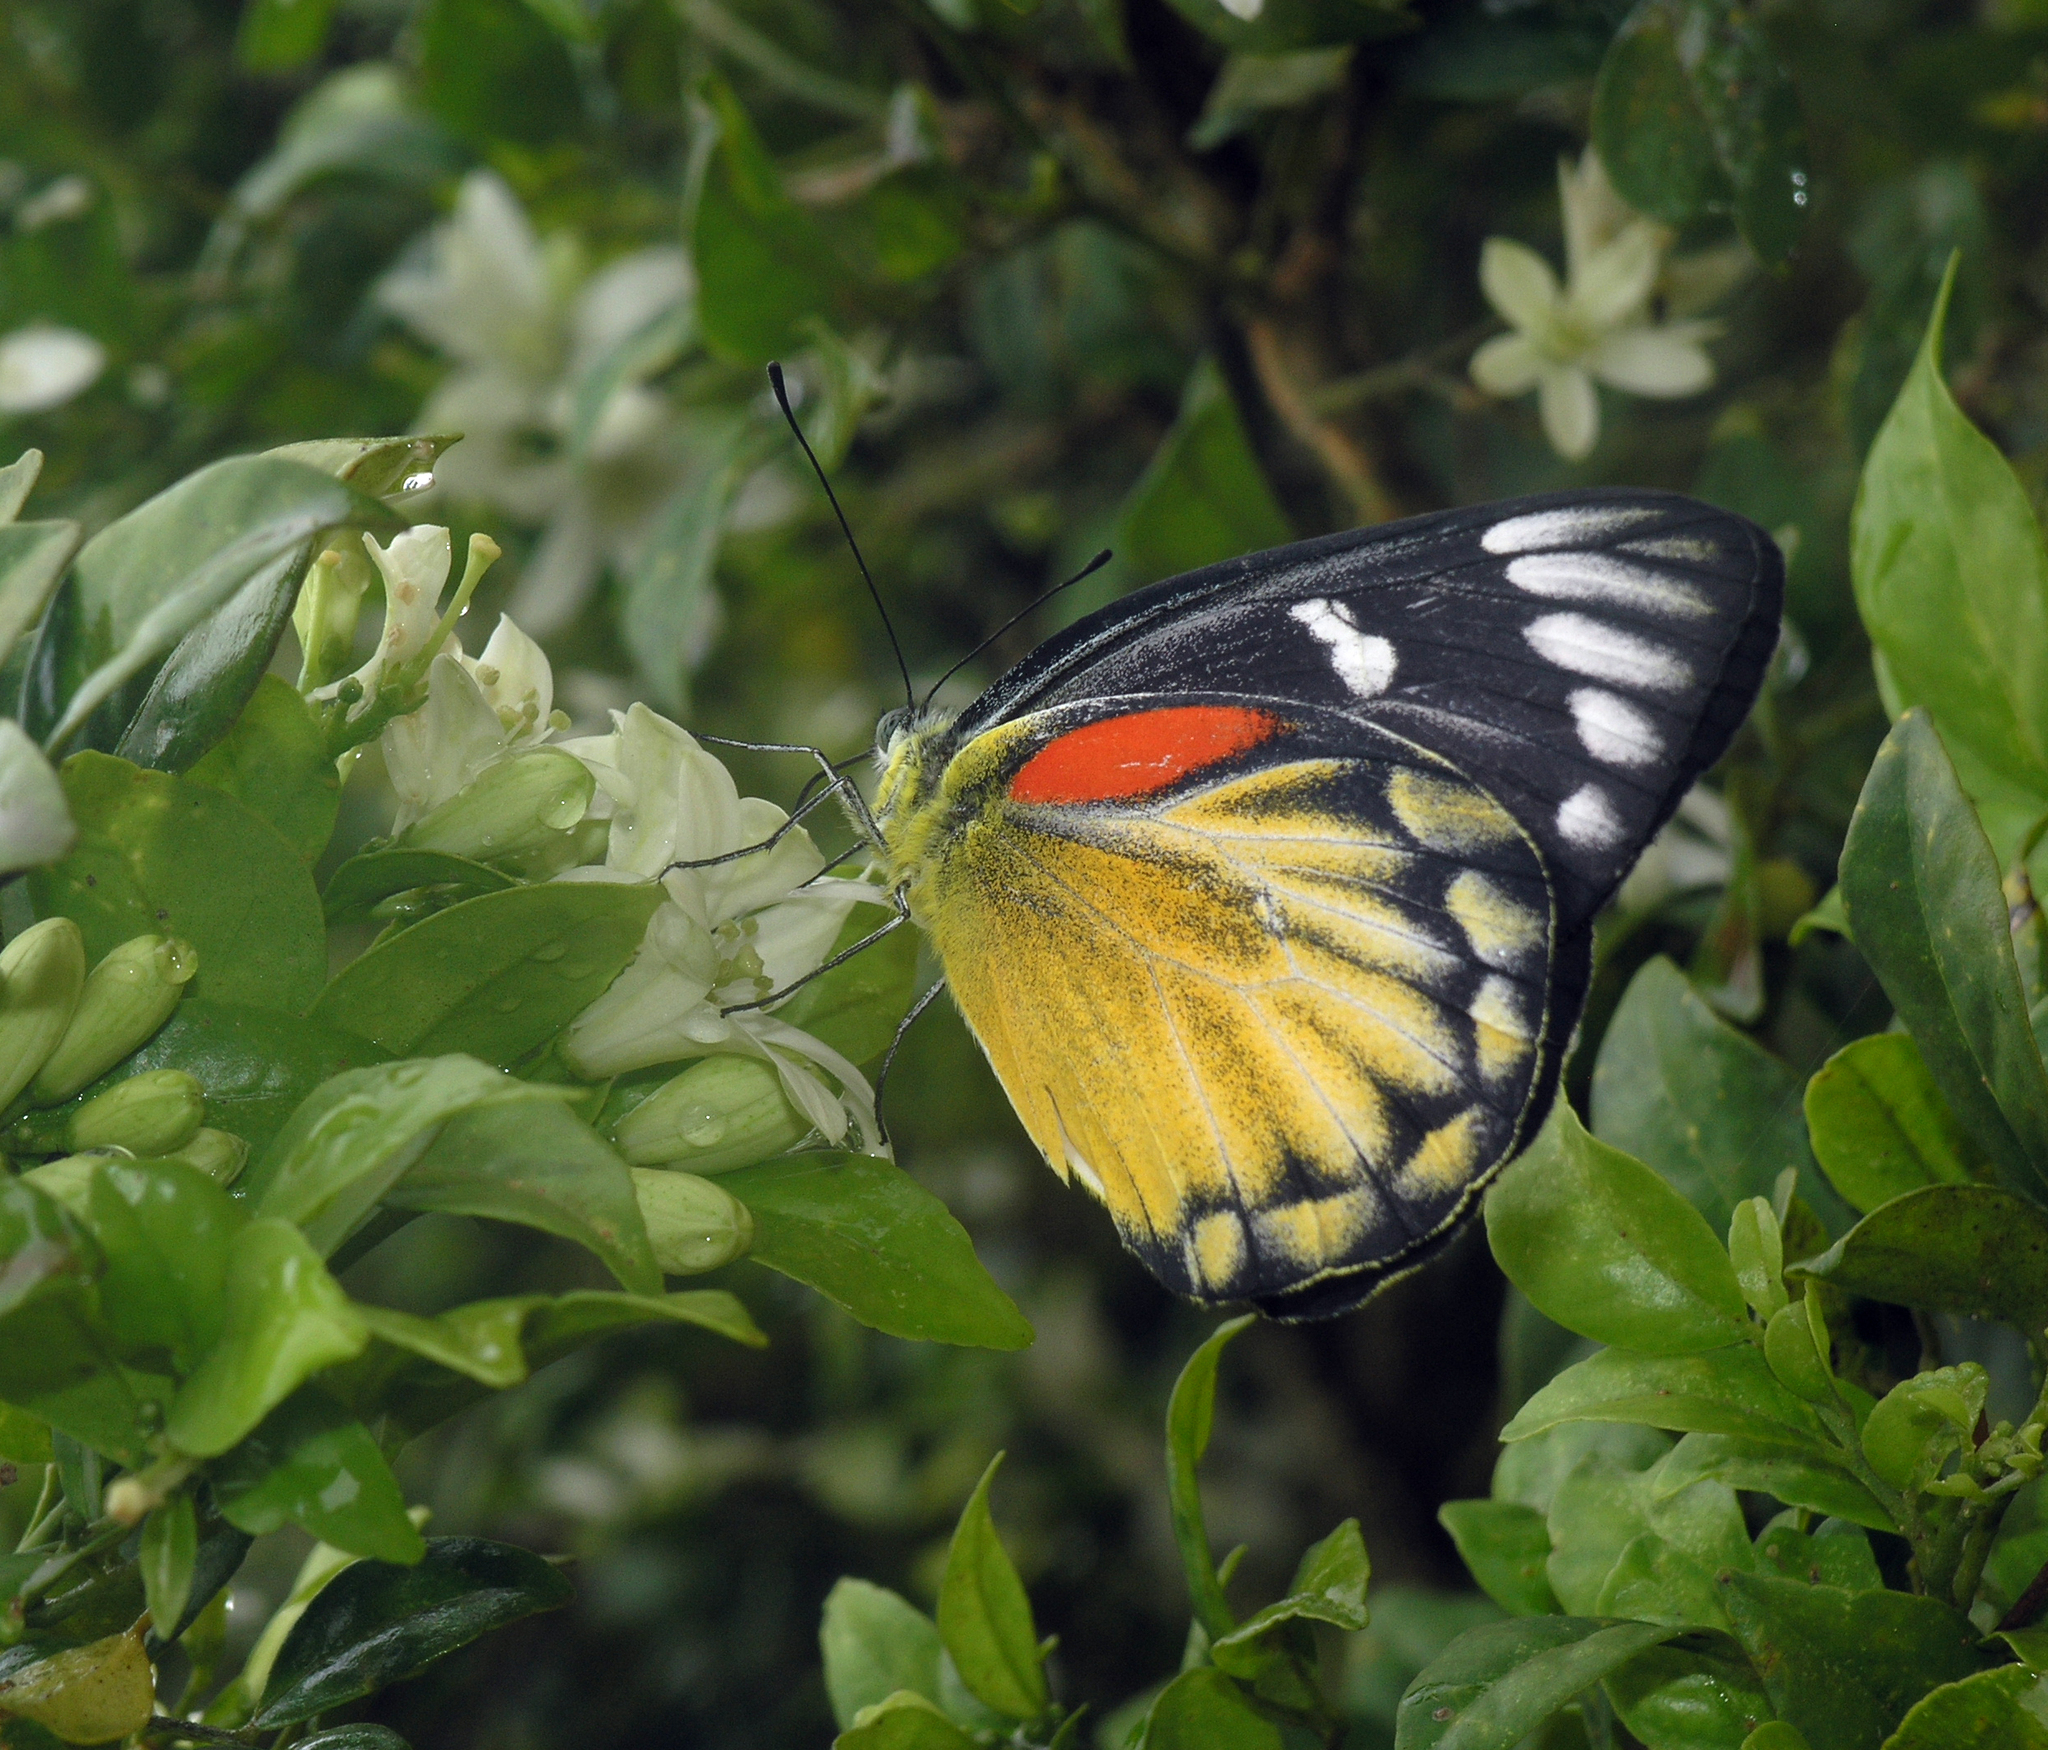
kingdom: Animalia
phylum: Arthropoda
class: Insecta
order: Lepidoptera
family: Pieridae
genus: Delias
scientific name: Delias descombesi
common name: Red-spot jezebel
